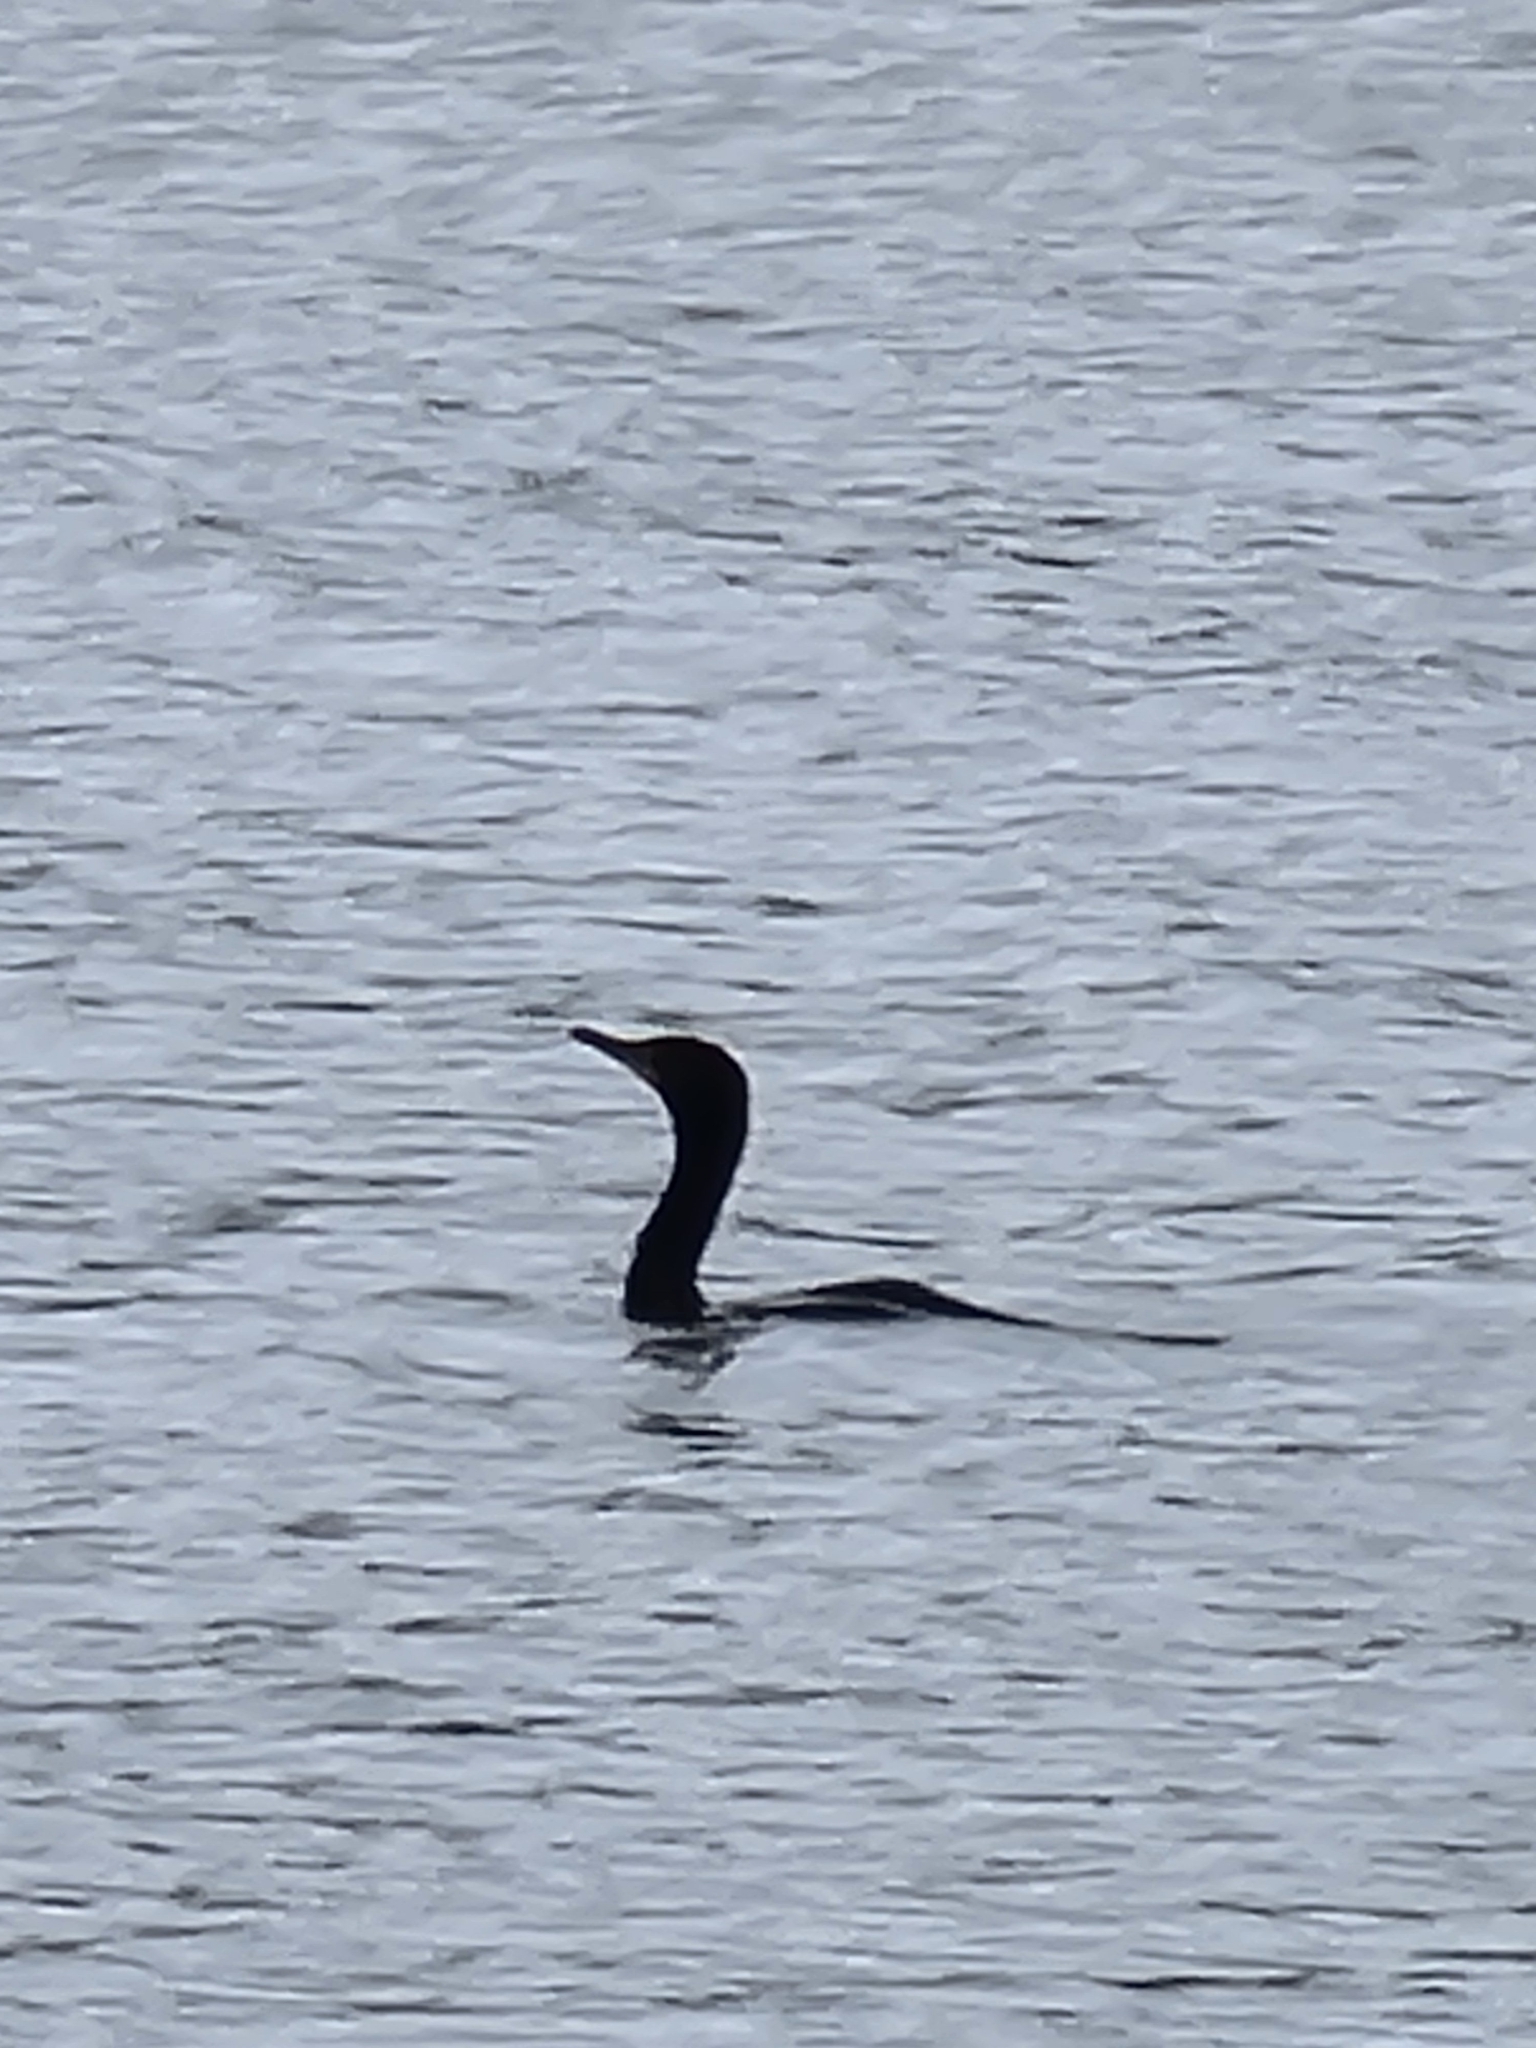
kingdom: Animalia
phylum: Chordata
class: Aves
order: Suliformes
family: Phalacrocoracidae
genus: Phalacrocorax
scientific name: Phalacrocorax auritus
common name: Double-crested cormorant
